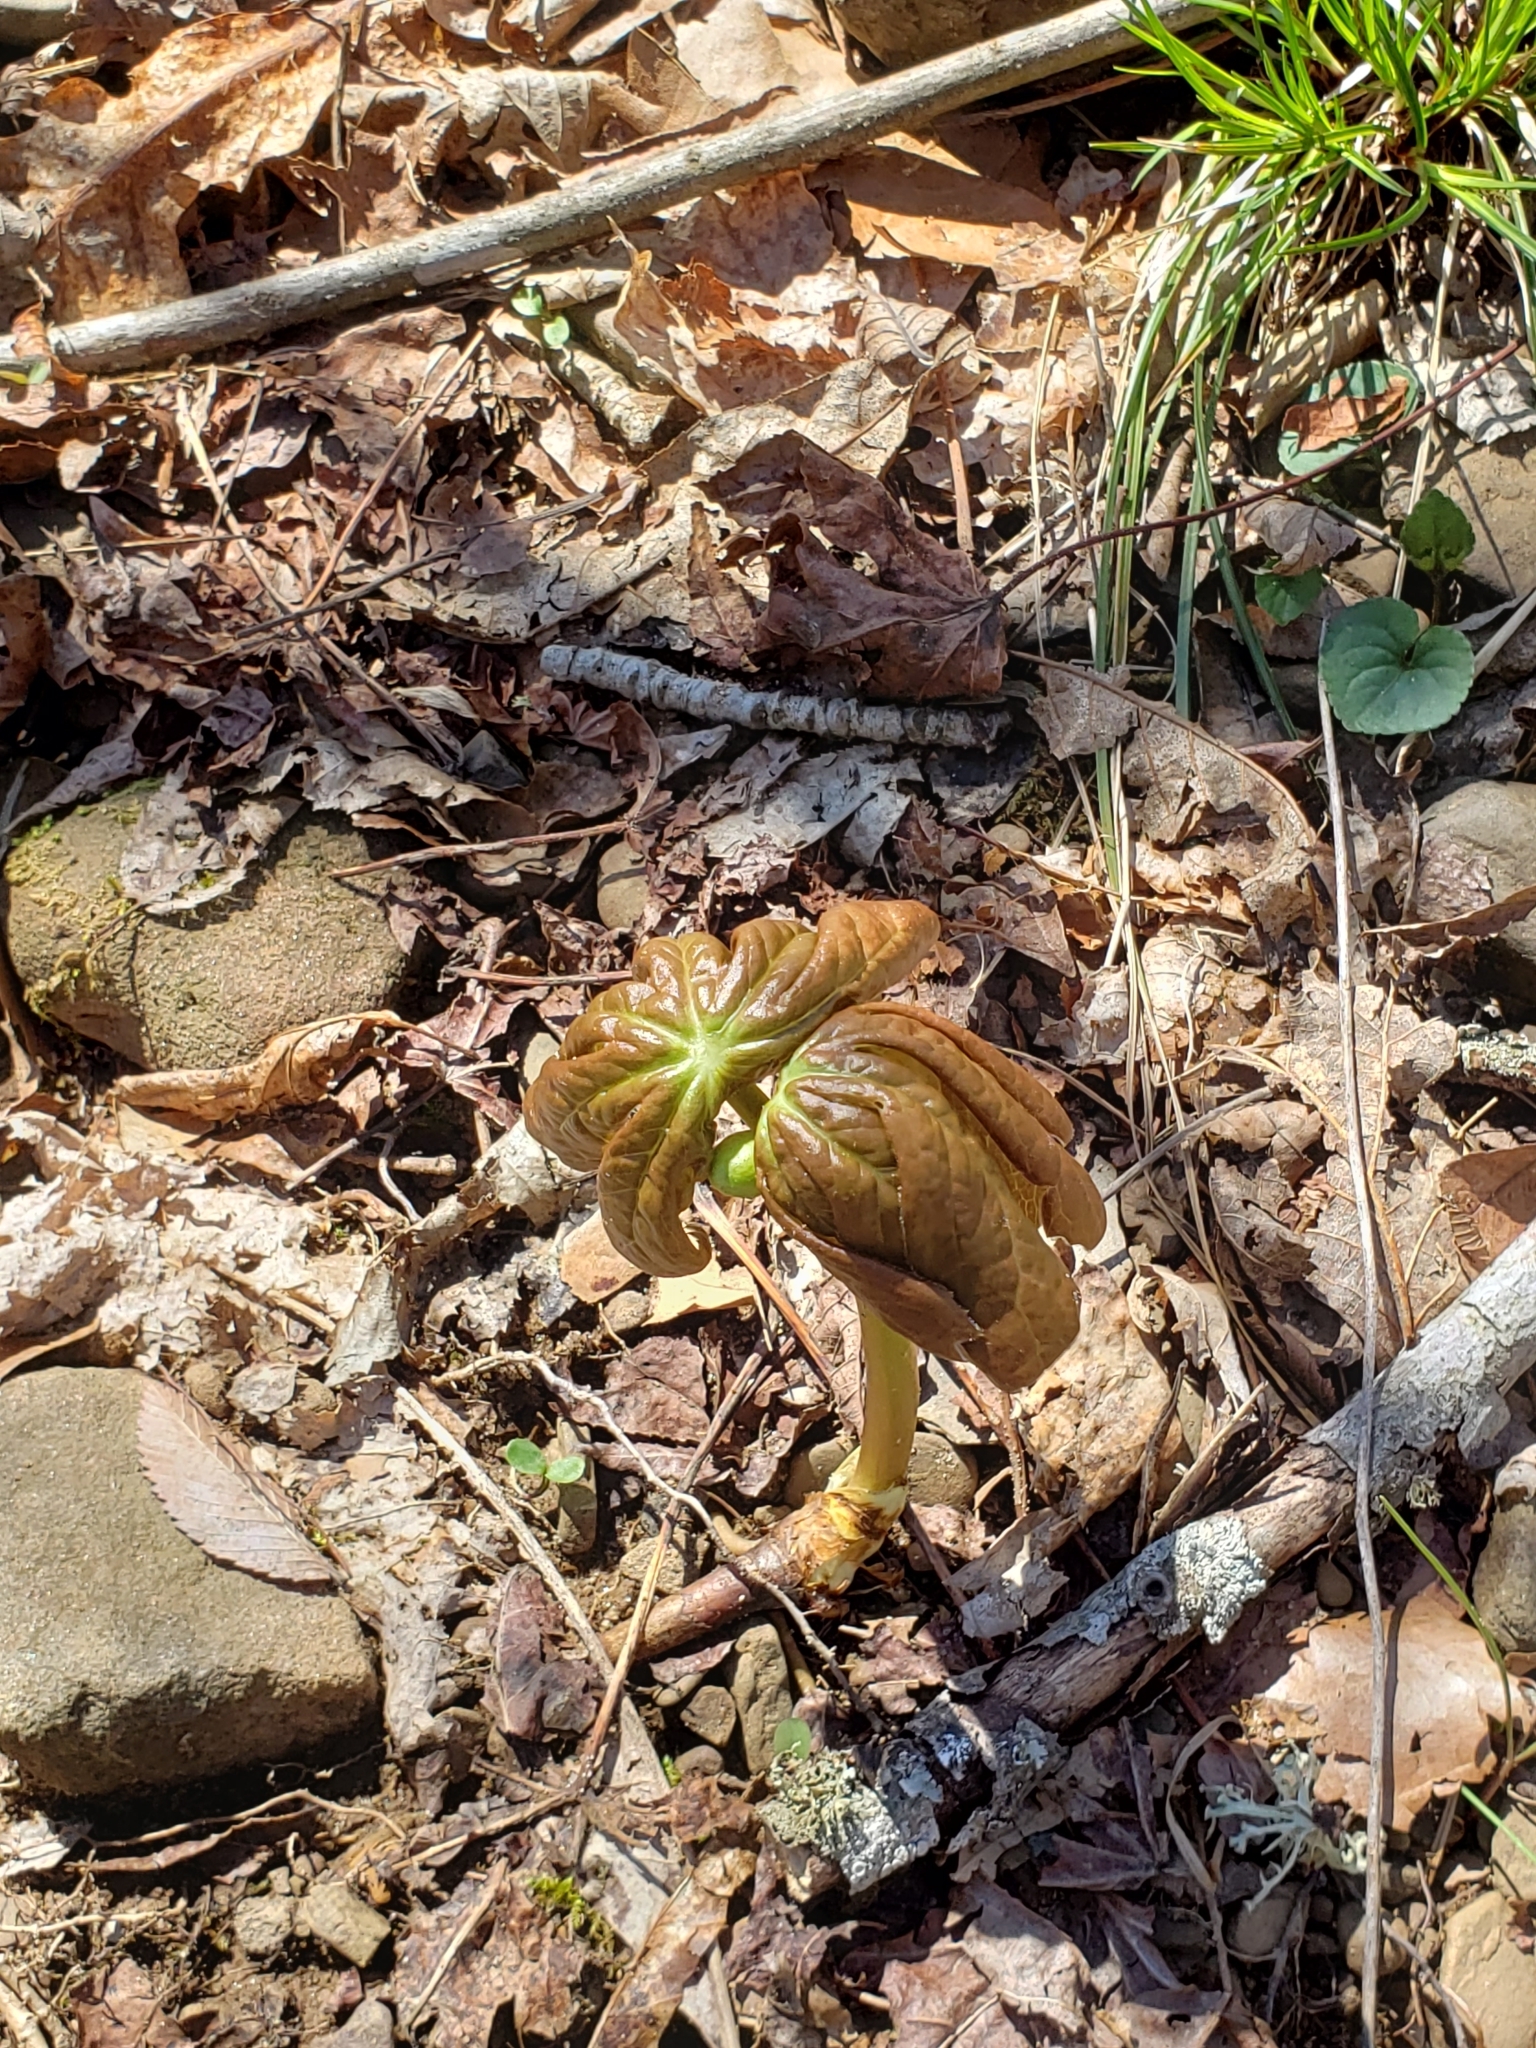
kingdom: Plantae
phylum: Tracheophyta
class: Magnoliopsida
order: Ranunculales
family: Berberidaceae
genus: Podophyllum
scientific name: Podophyllum peltatum
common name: Wild mandrake
